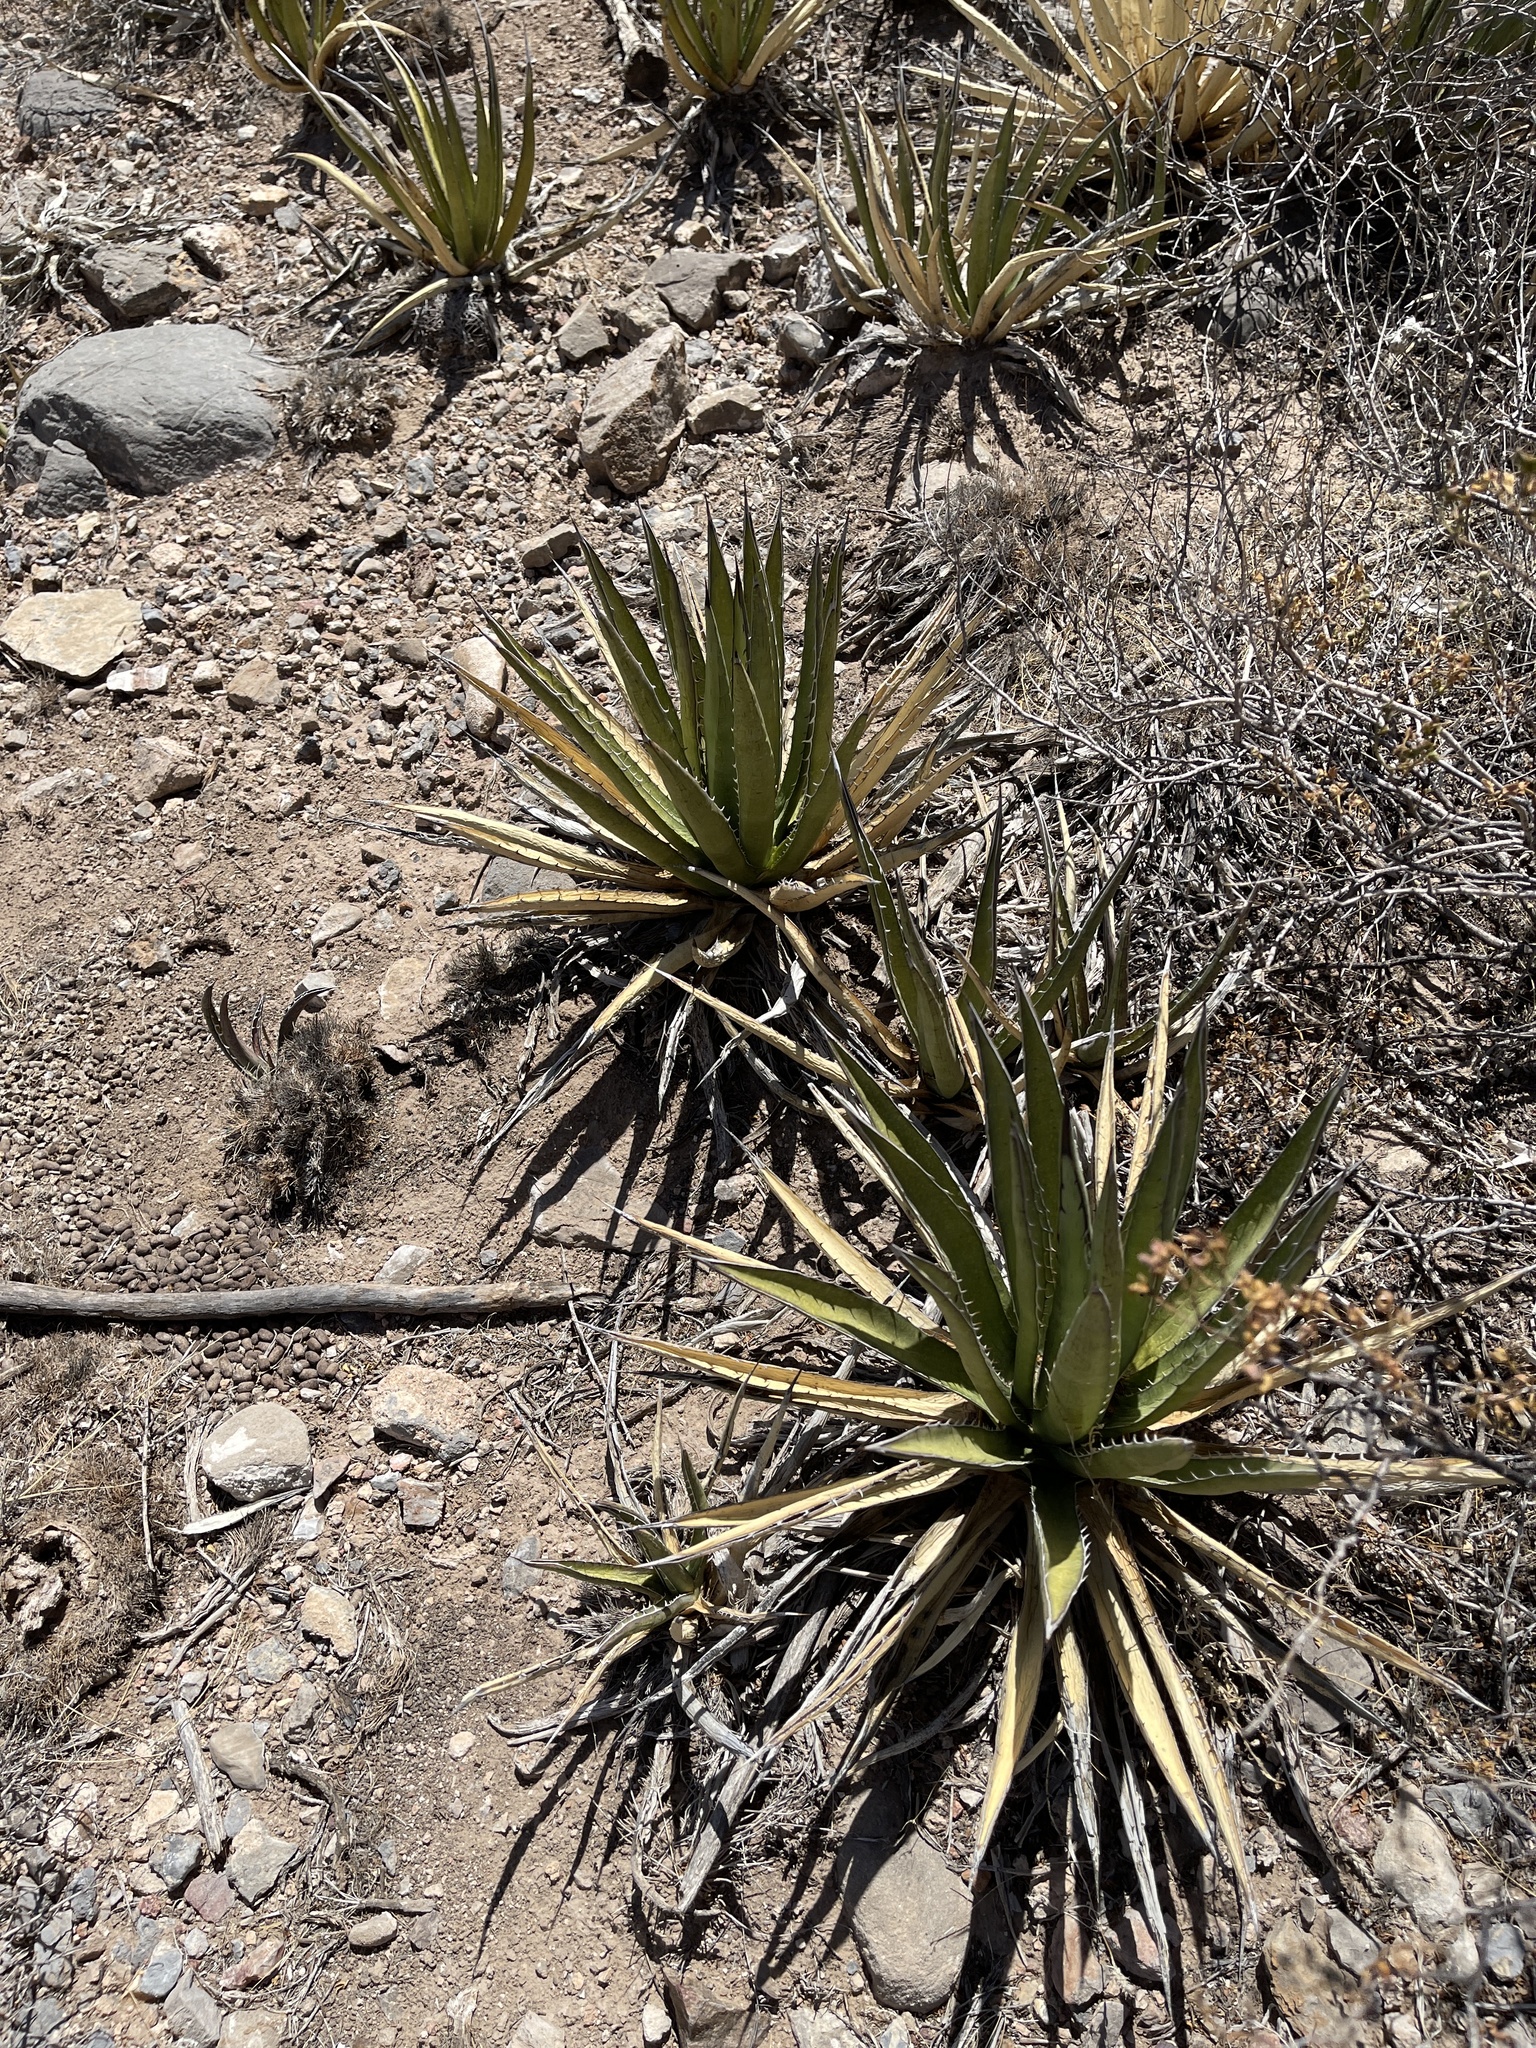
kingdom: Plantae
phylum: Tracheophyta
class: Liliopsida
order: Asparagales
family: Asparagaceae
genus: Agave
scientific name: Agave lechuguilla
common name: Lecheguilla agave
